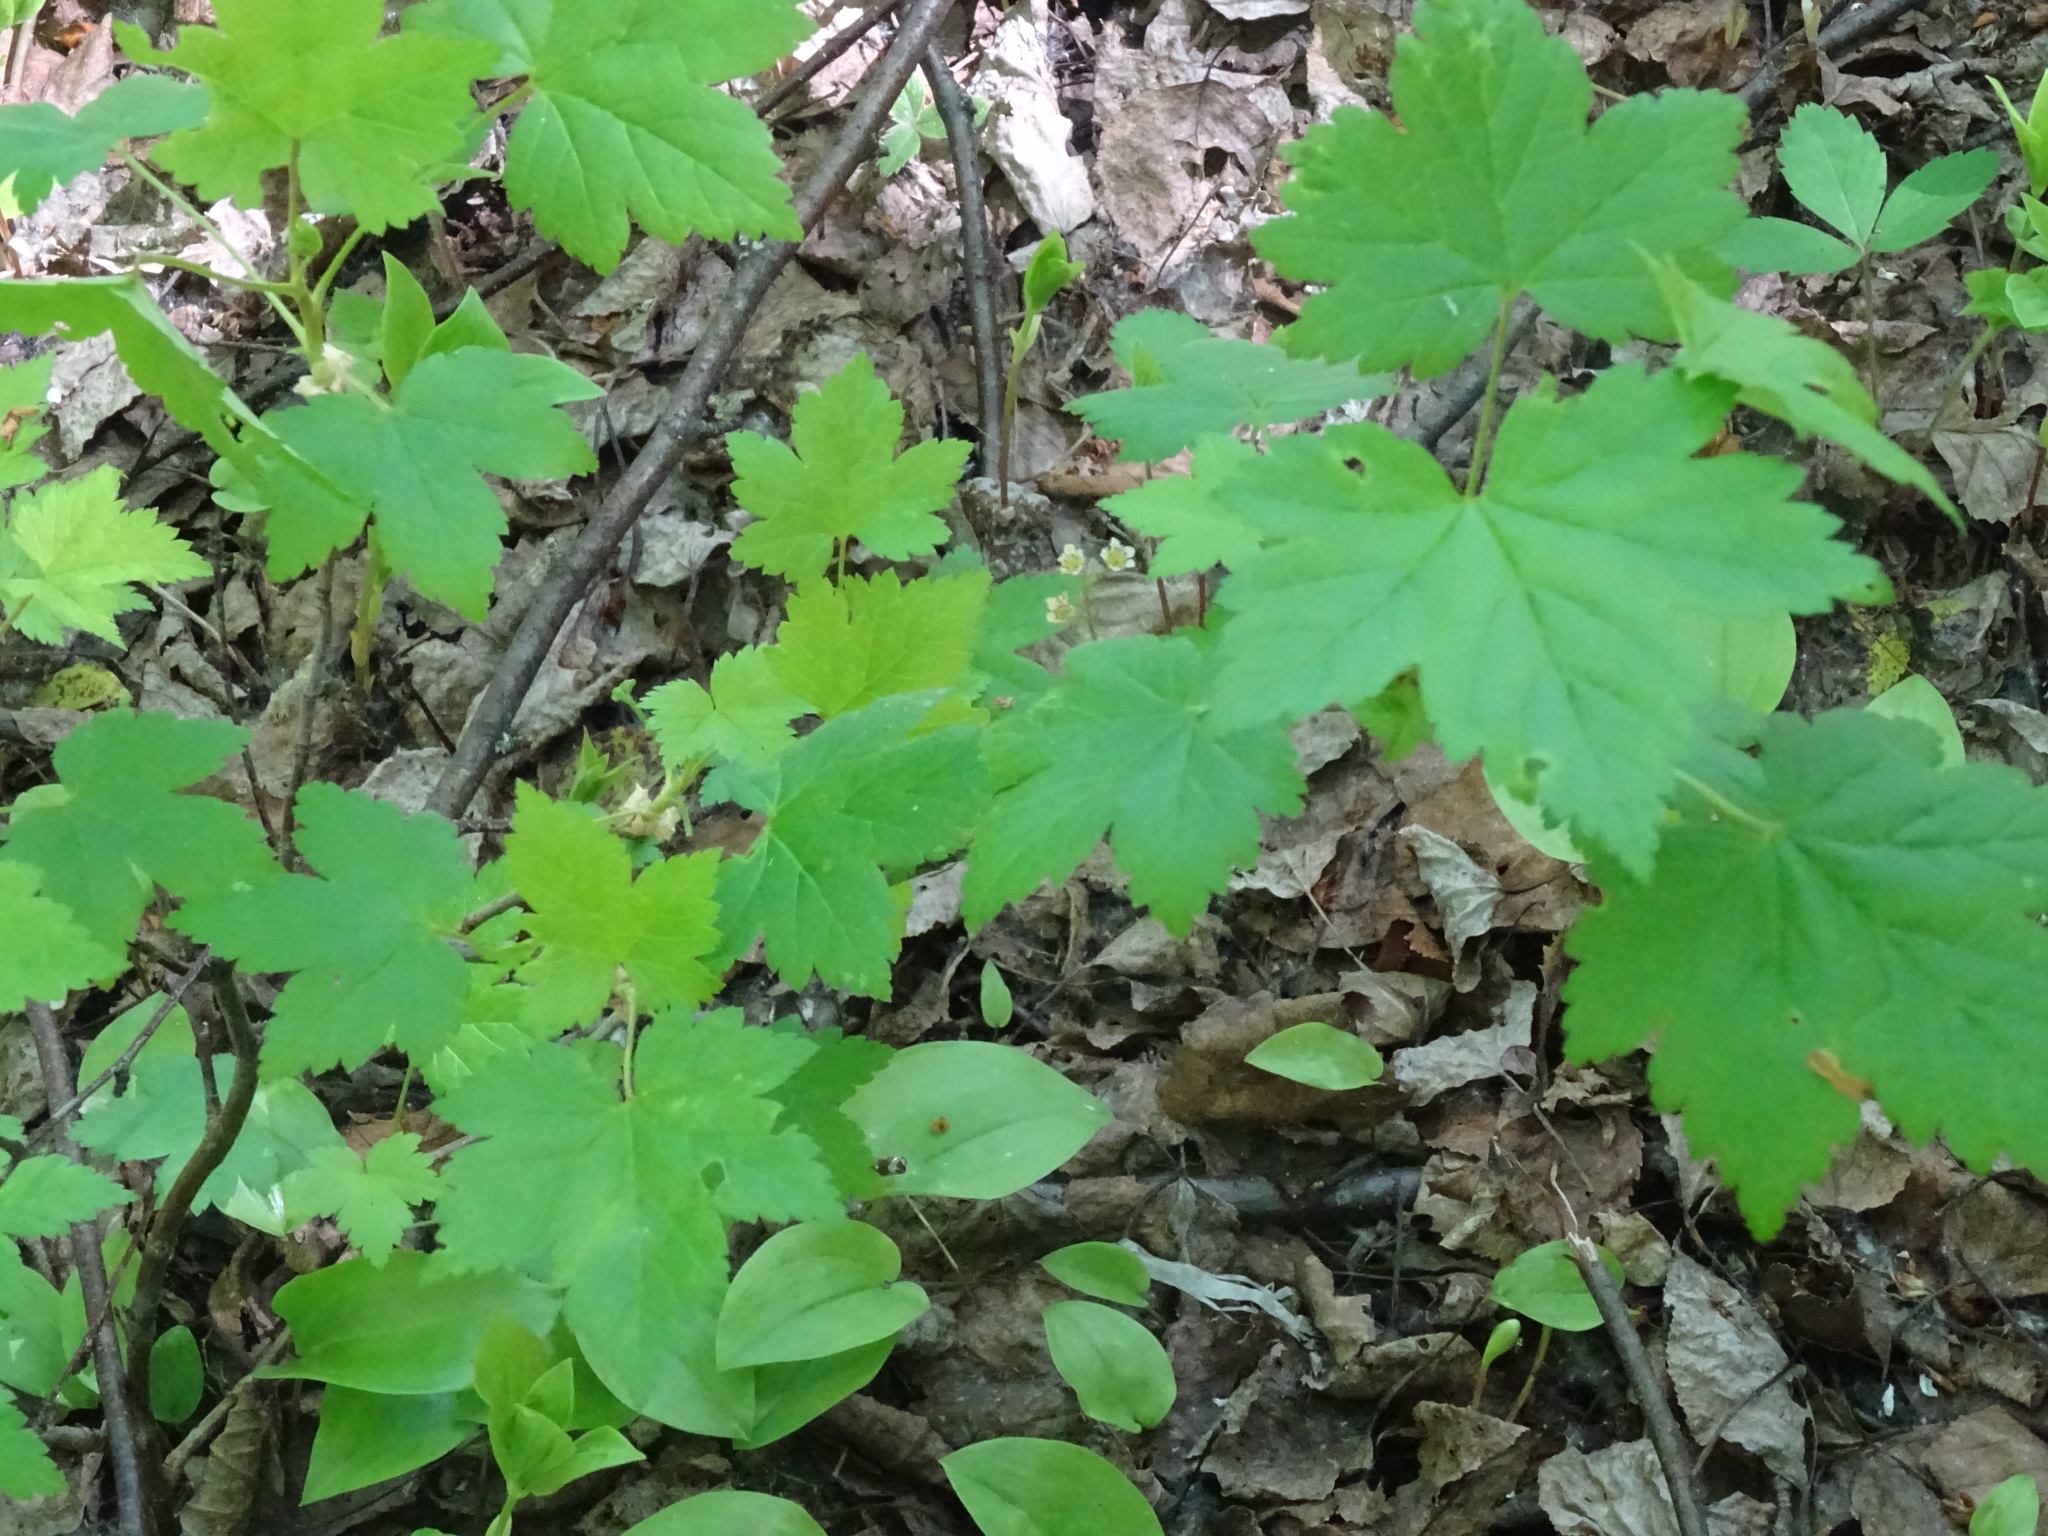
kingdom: Plantae
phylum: Tracheophyta
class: Magnoliopsida
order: Saxifragales
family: Grossulariaceae
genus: Ribes
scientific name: Ribes glandulosum
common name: Skunk currant
